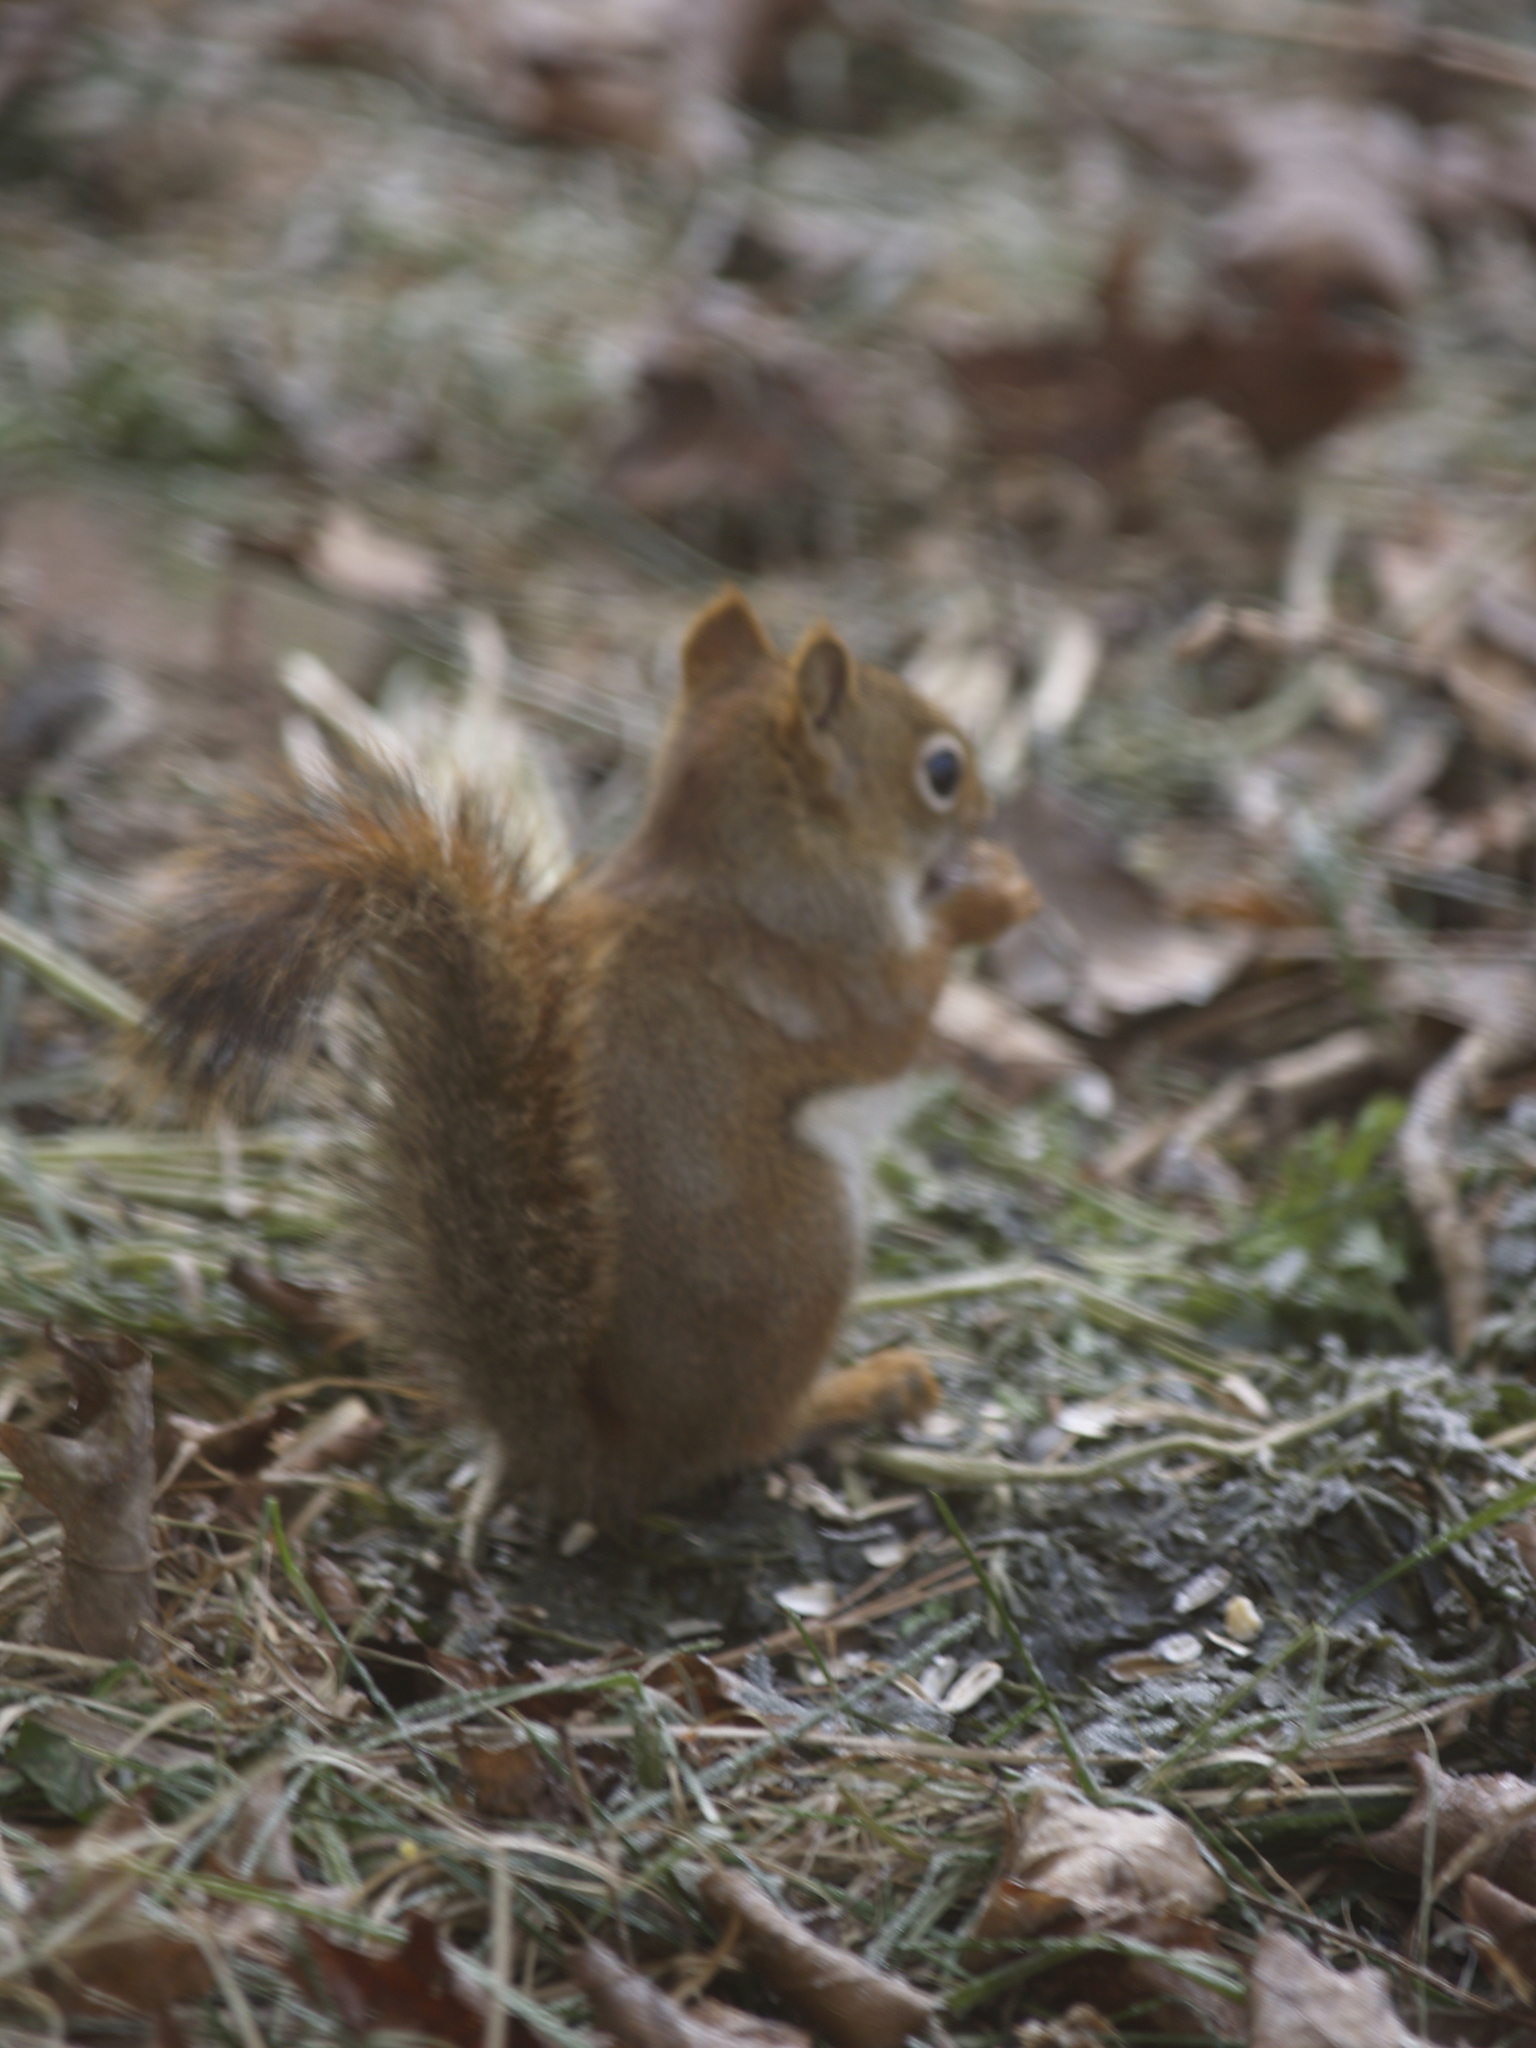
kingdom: Animalia
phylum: Chordata
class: Mammalia
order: Rodentia
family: Sciuridae
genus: Tamiasciurus
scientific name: Tamiasciurus hudsonicus
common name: Red squirrel
